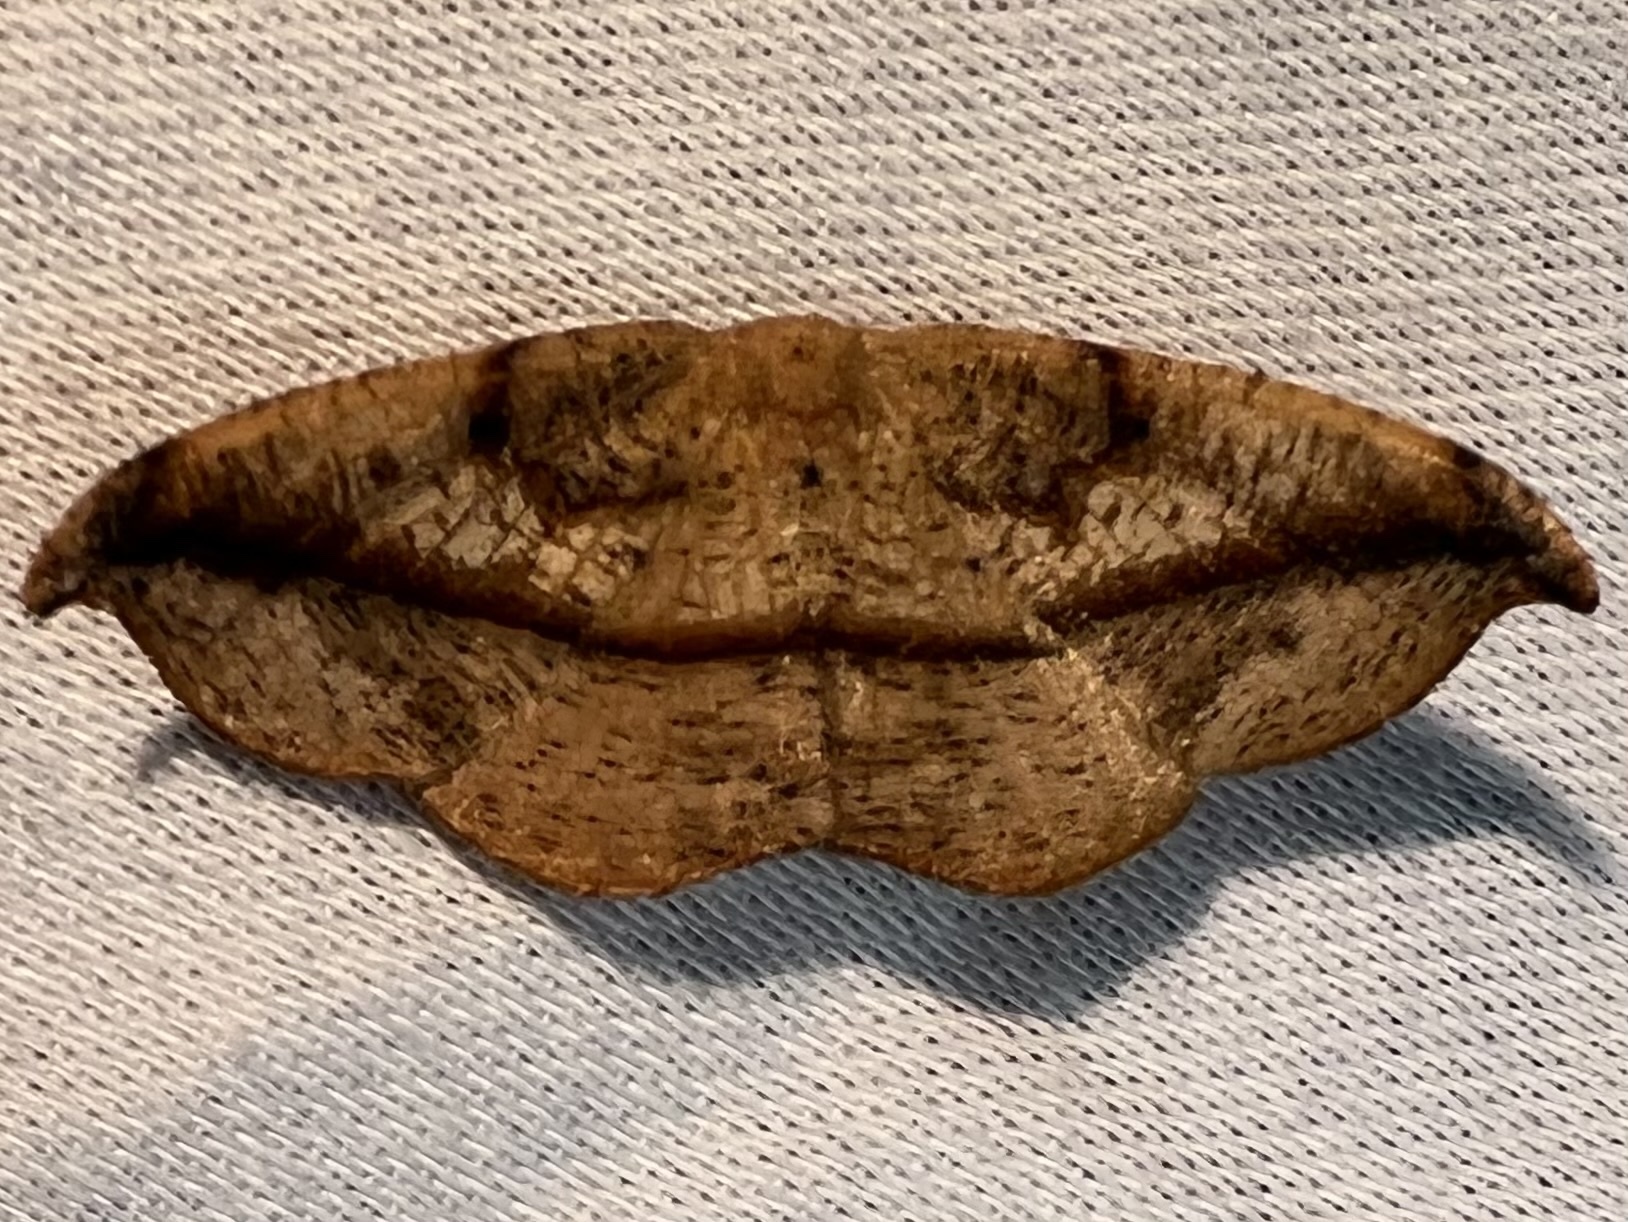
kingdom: Animalia
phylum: Arthropoda
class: Insecta
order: Lepidoptera
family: Geometridae
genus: Patalene
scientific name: Patalene olyzonaria
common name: Juniper geometer moth
